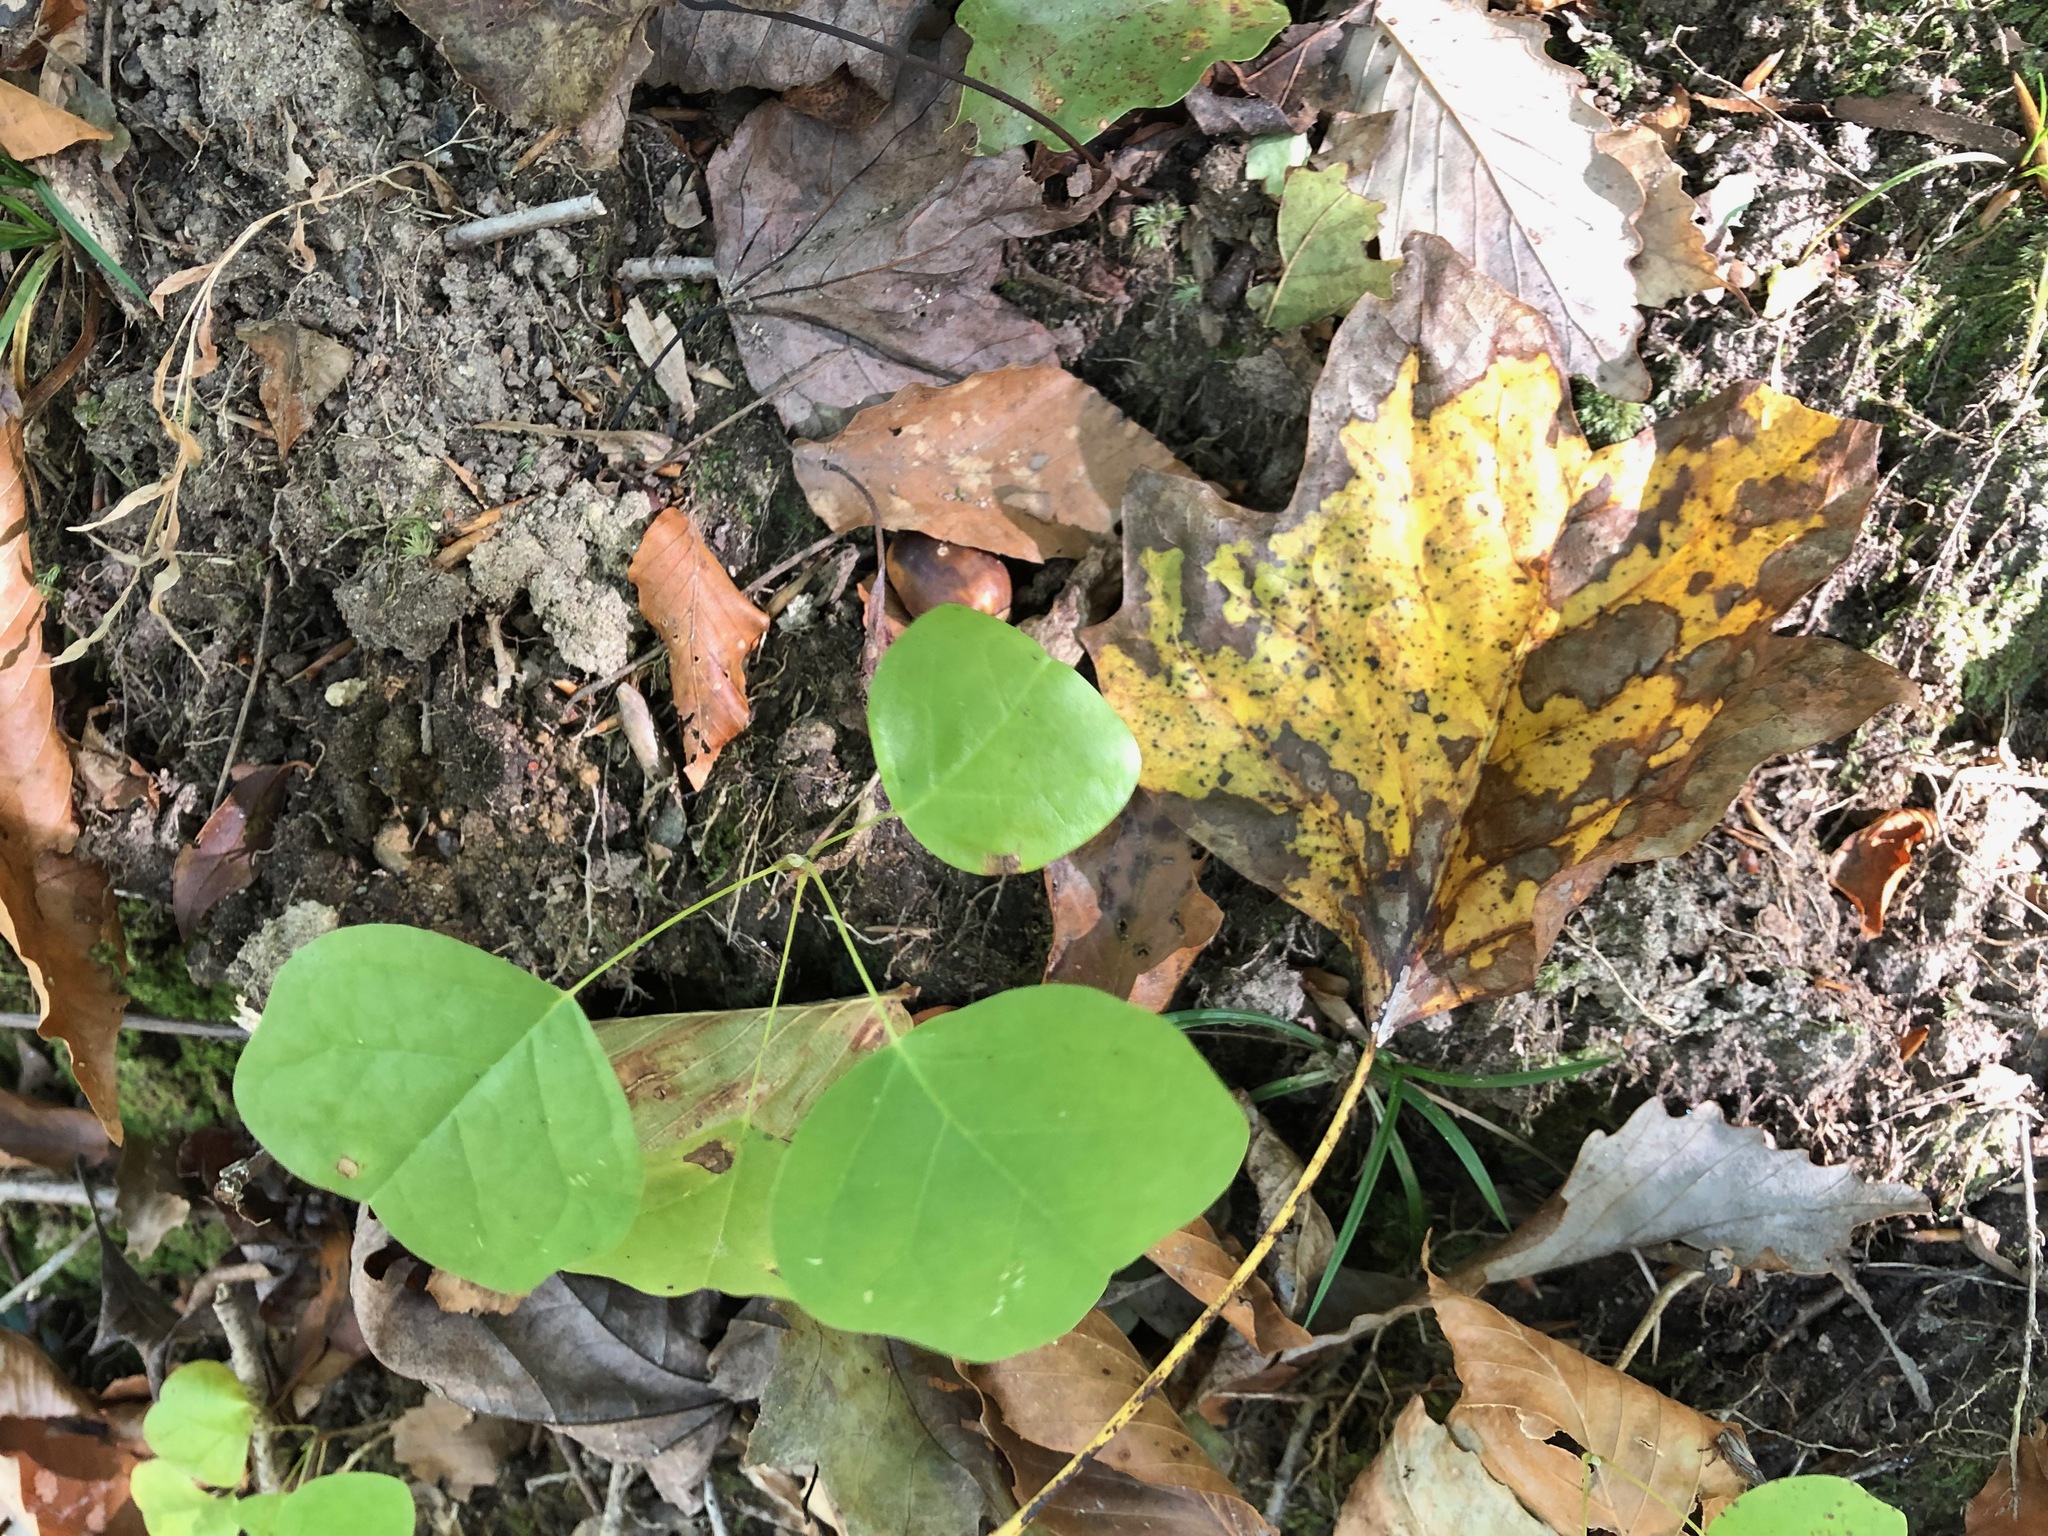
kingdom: Plantae
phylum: Tracheophyta
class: Magnoliopsida
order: Magnoliales
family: Magnoliaceae
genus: Liriodendron
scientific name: Liriodendron tulipifera
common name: Tulip tree
